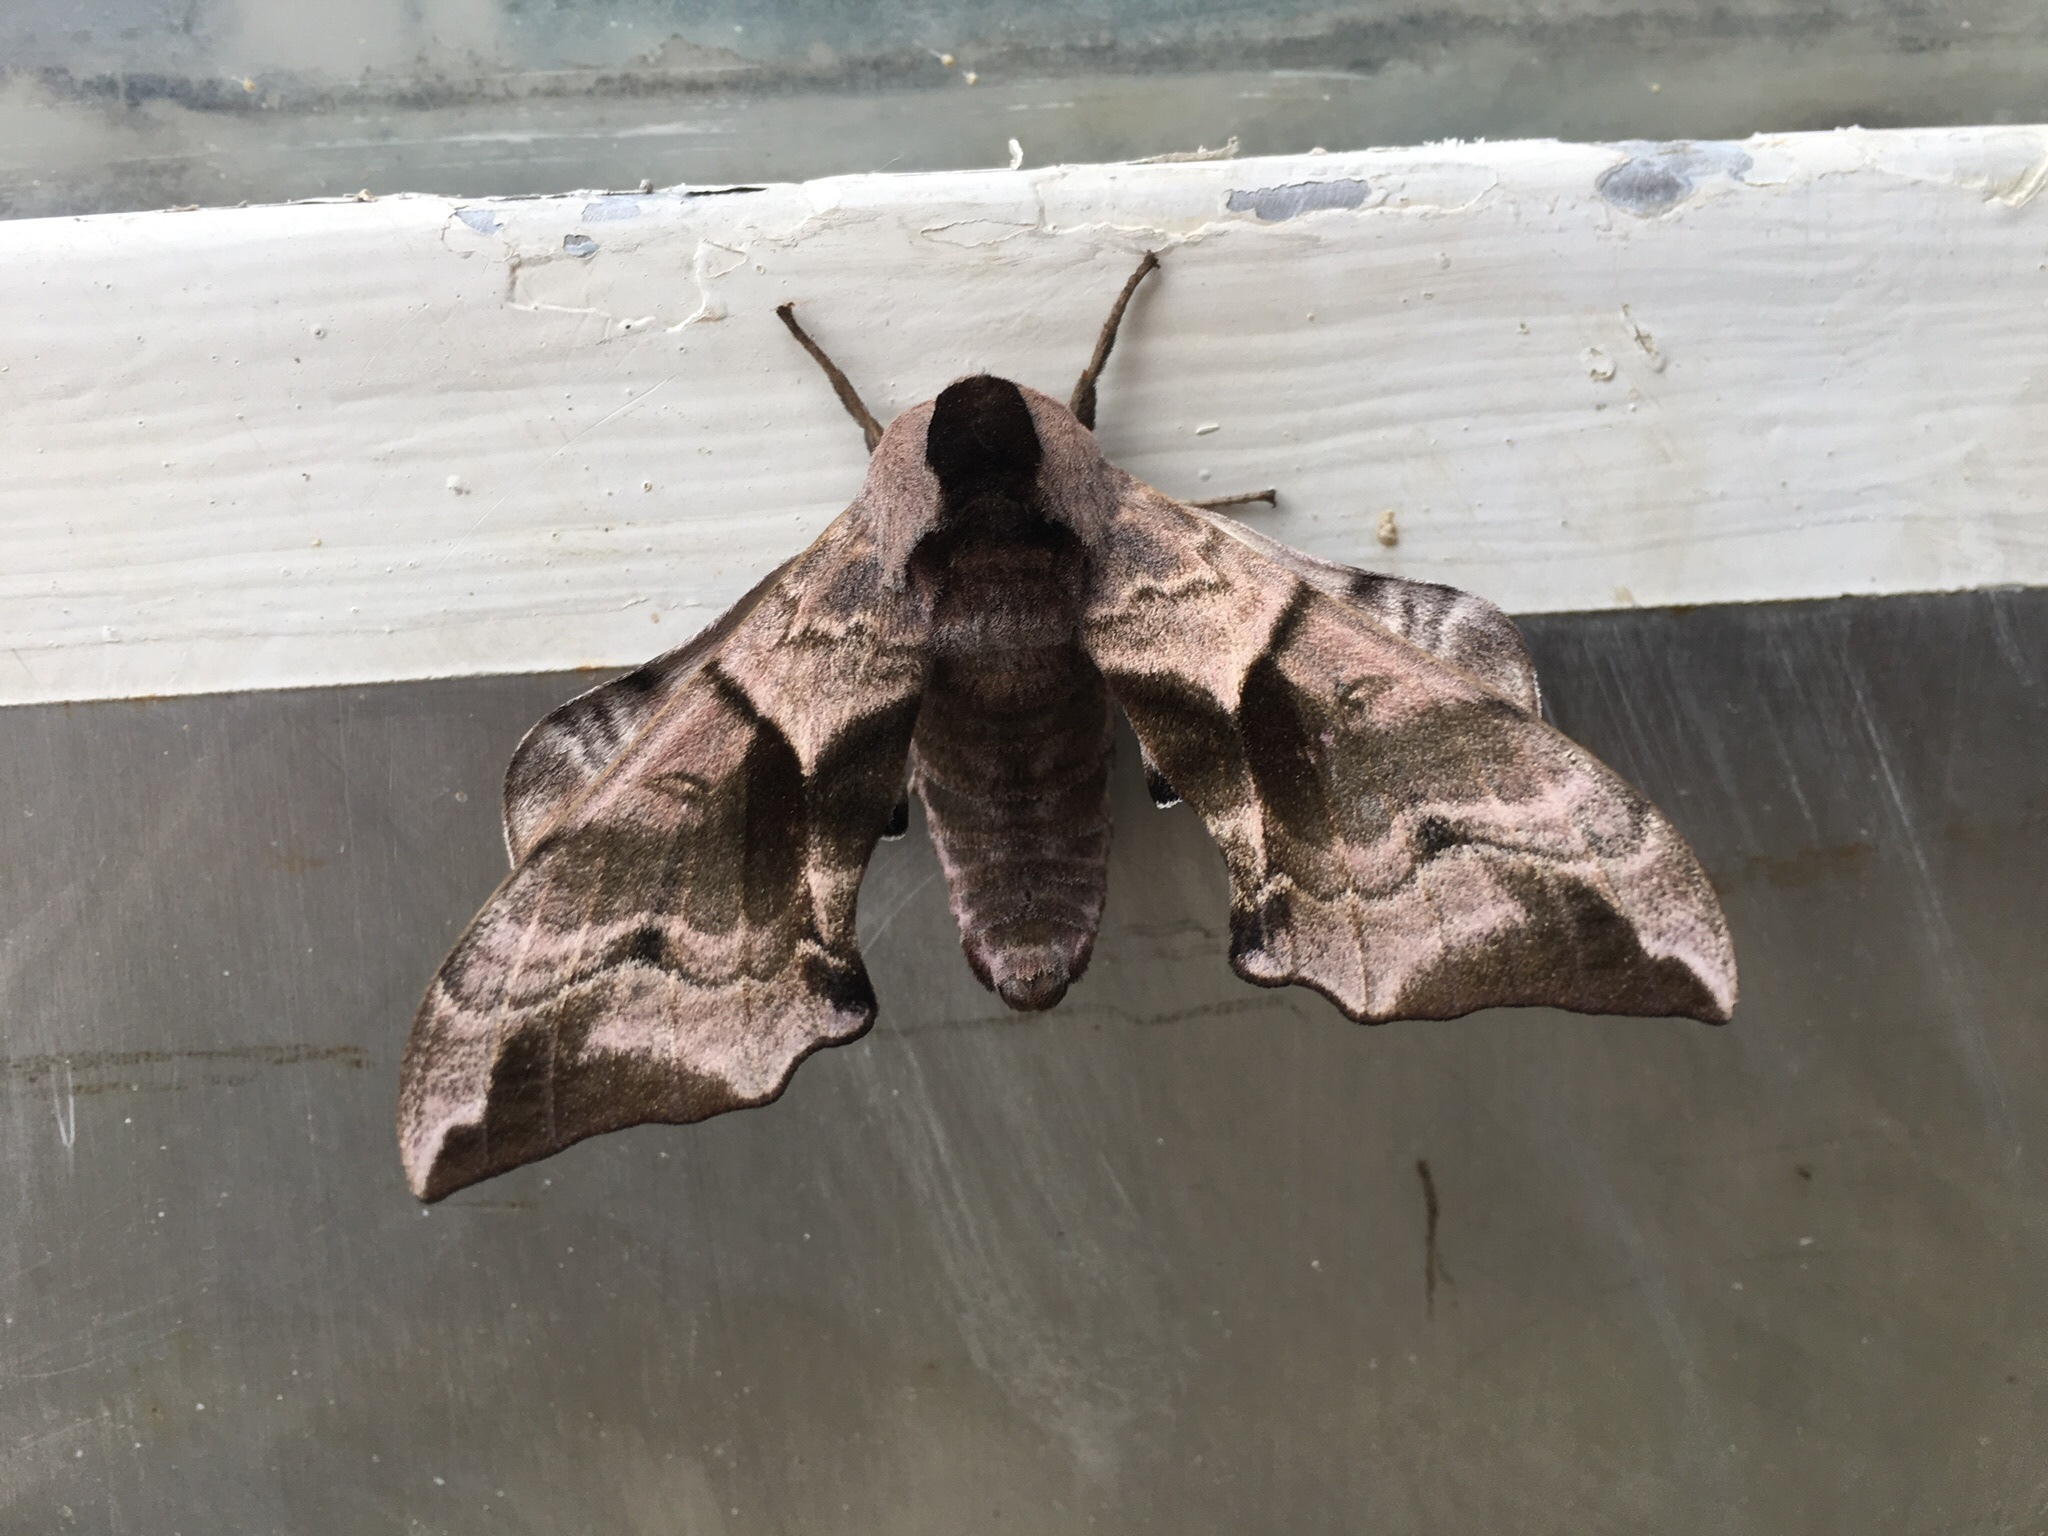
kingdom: Animalia
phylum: Arthropoda
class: Insecta
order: Lepidoptera
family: Sphingidae
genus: Smerinthus
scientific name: Smerinthus ocellata
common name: Eyed hawk-moth
